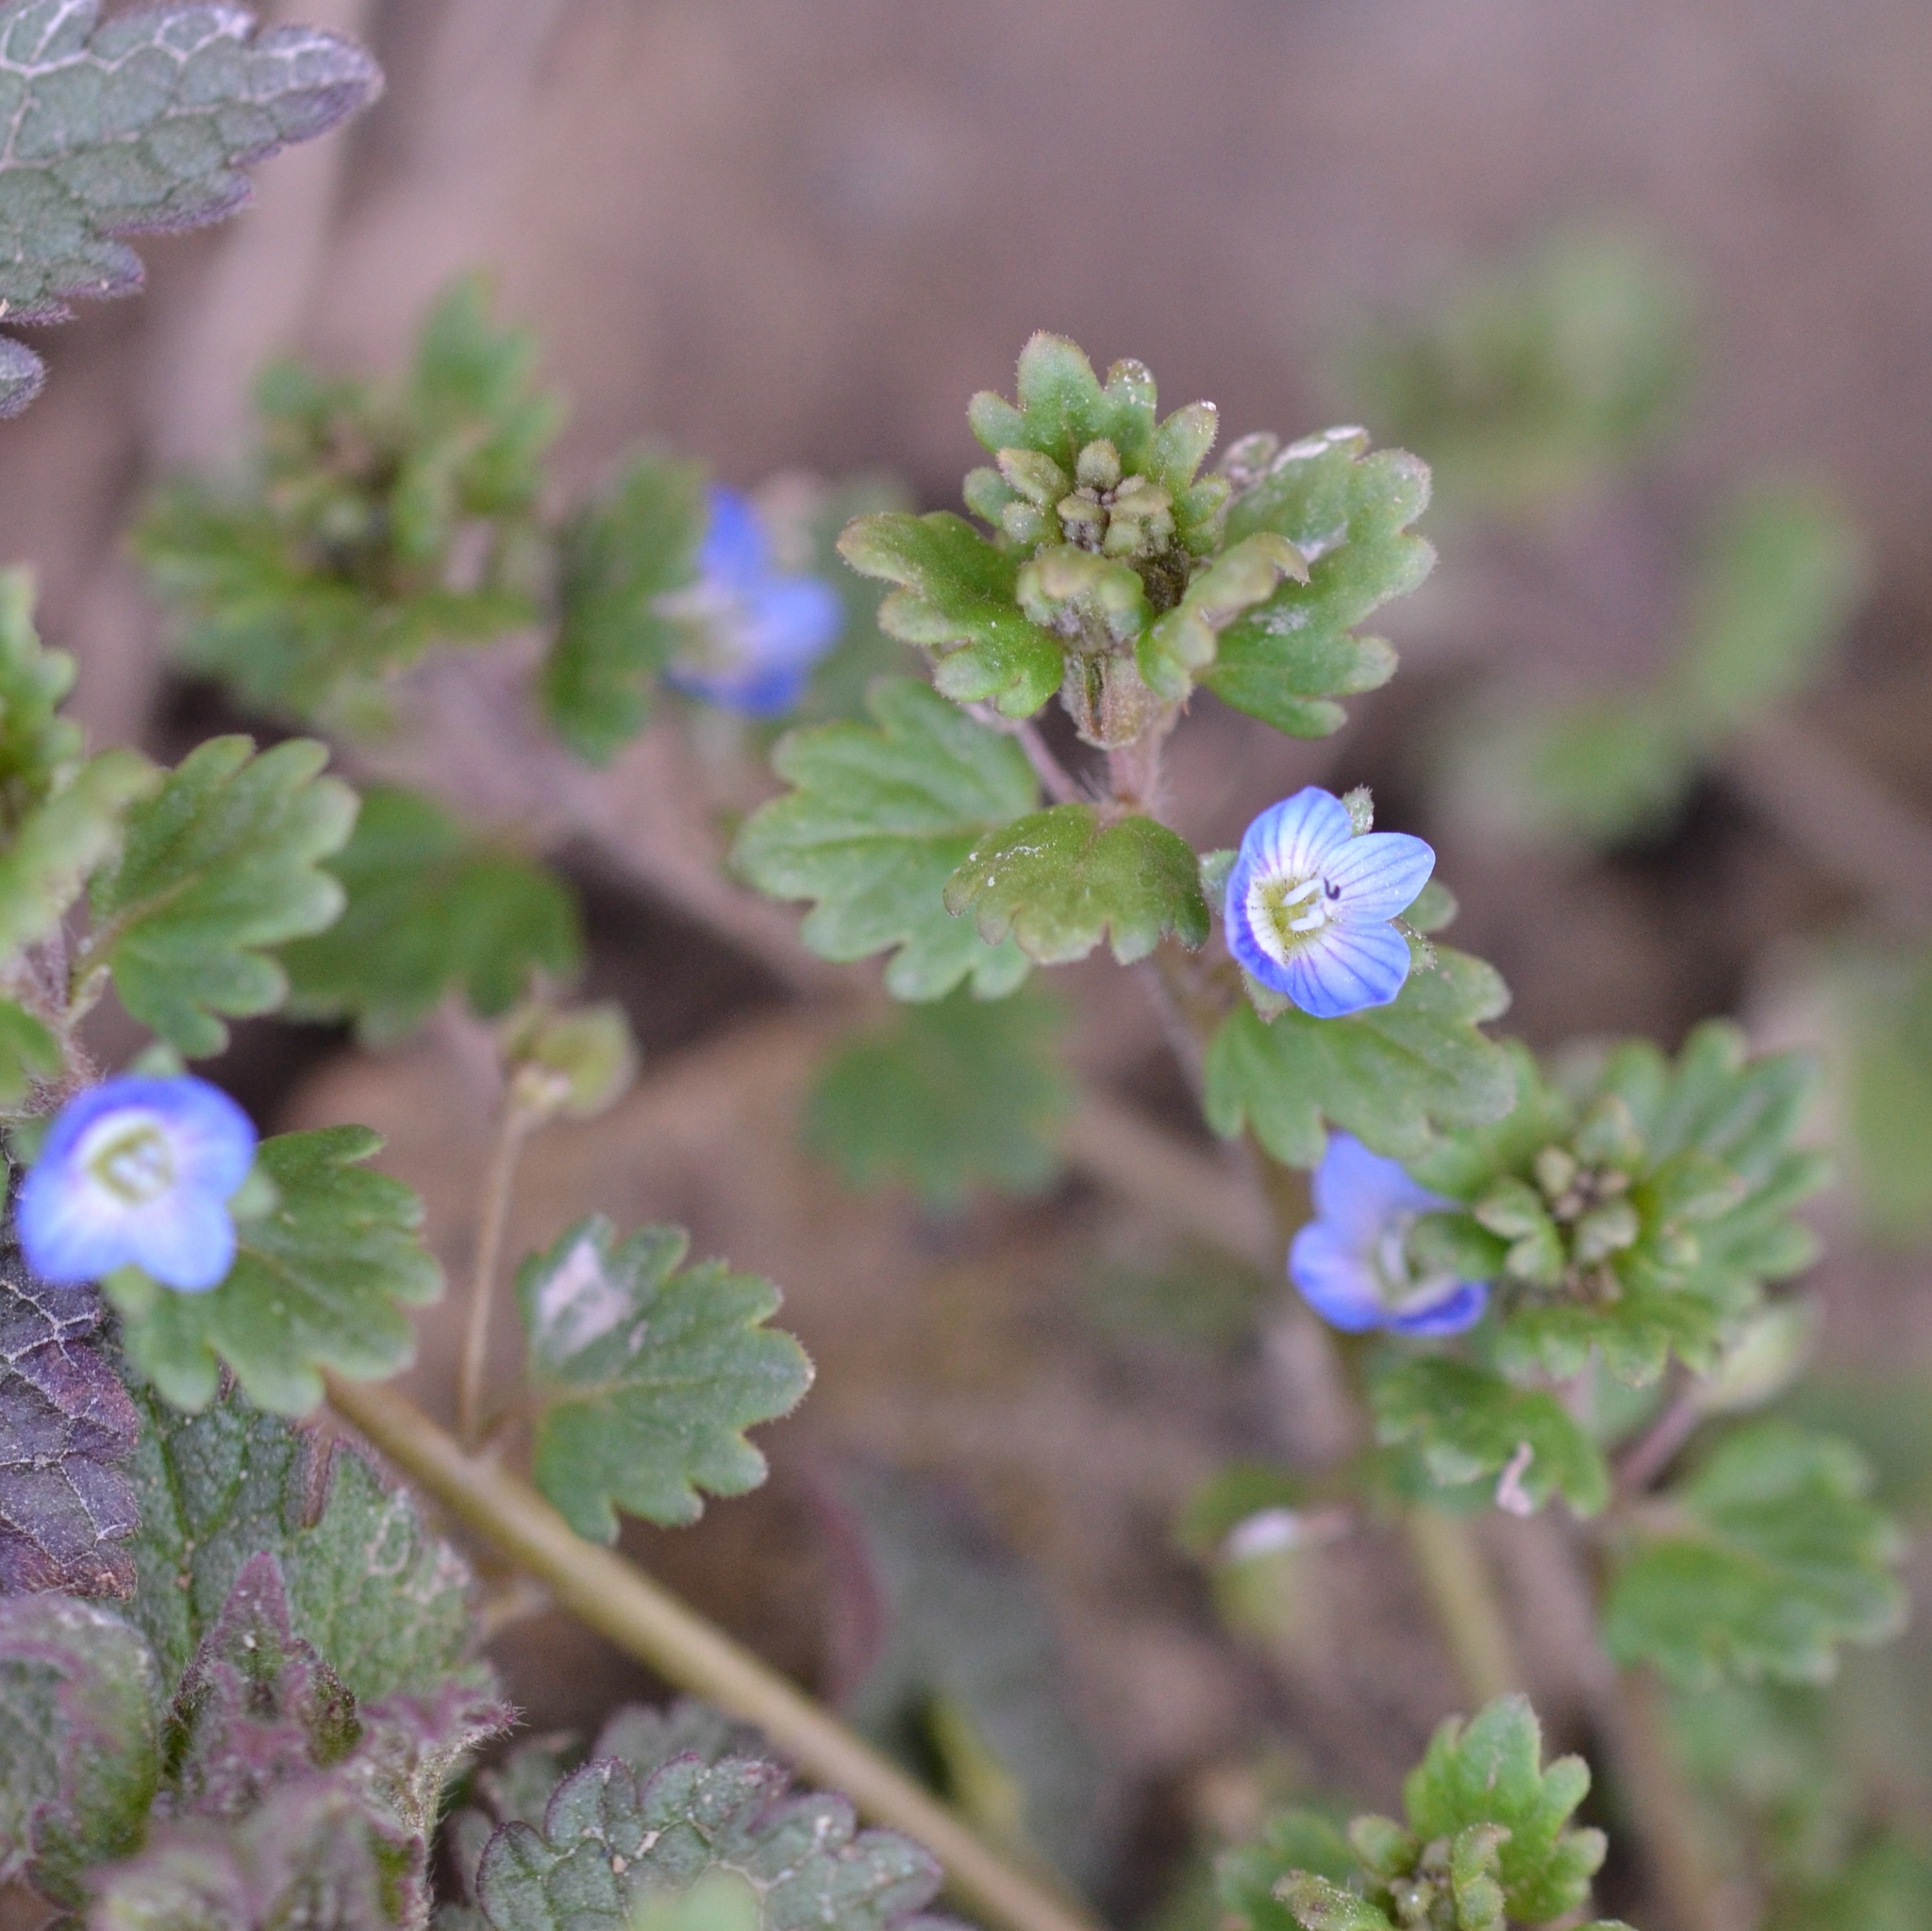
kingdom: Plantae
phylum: Tracheophyta
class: Magnoliopsida
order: Lamiales
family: Plantaginaceae
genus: Veronica
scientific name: Veronica polita
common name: Grey field-speedwell
